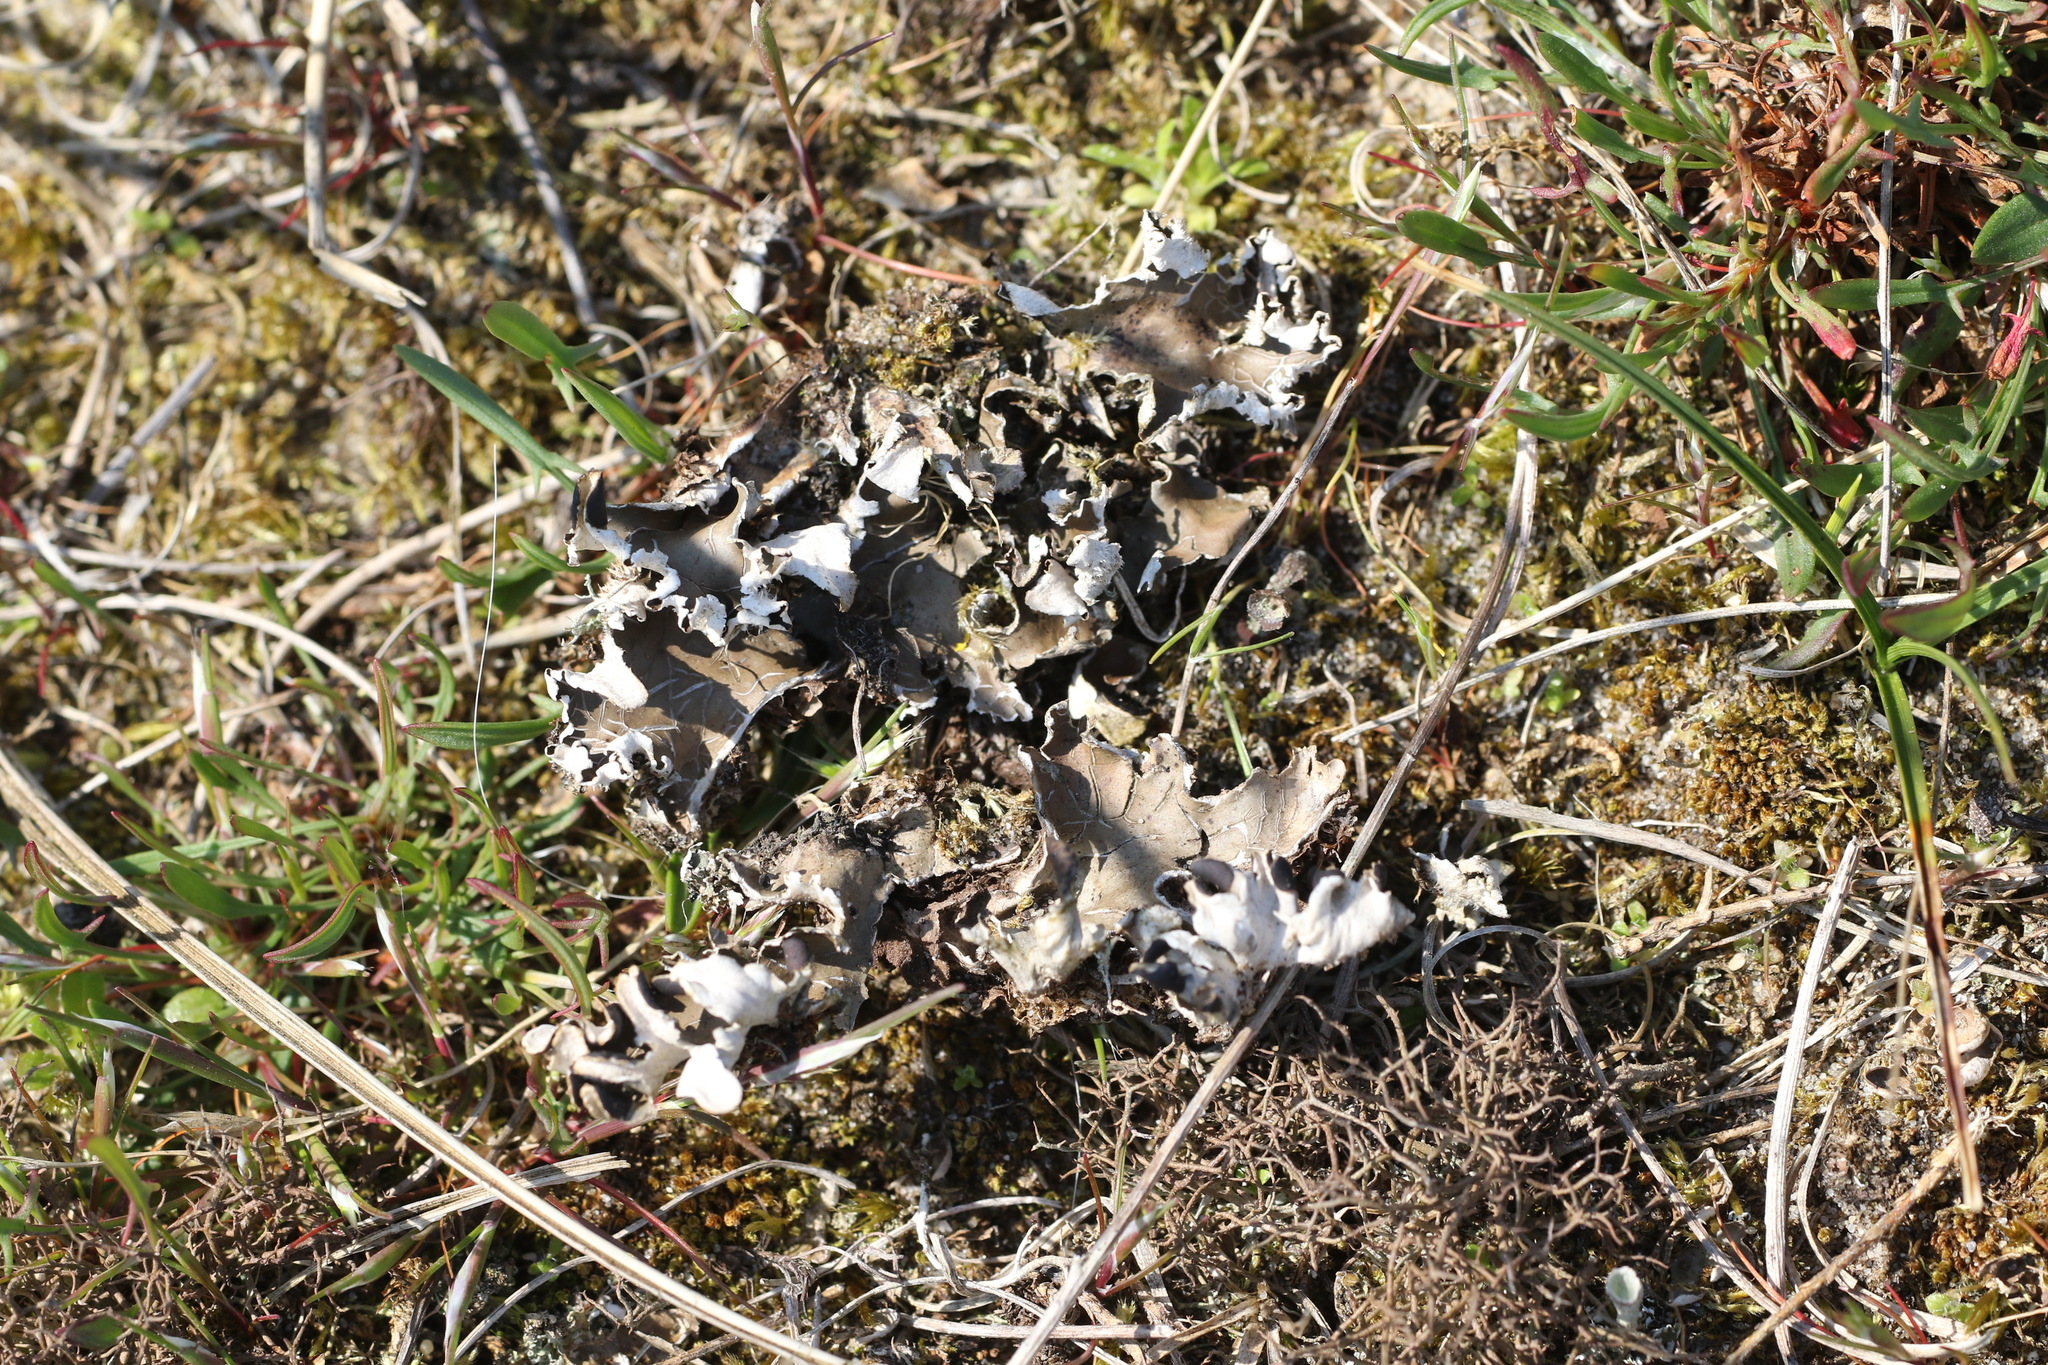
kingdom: Fungi
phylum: Ascomycota
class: Lecanoromycetes
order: Peltigerales
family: Peltigeraceae
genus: Peltigera
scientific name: Peltigera rufescens
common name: Field dog lichen
